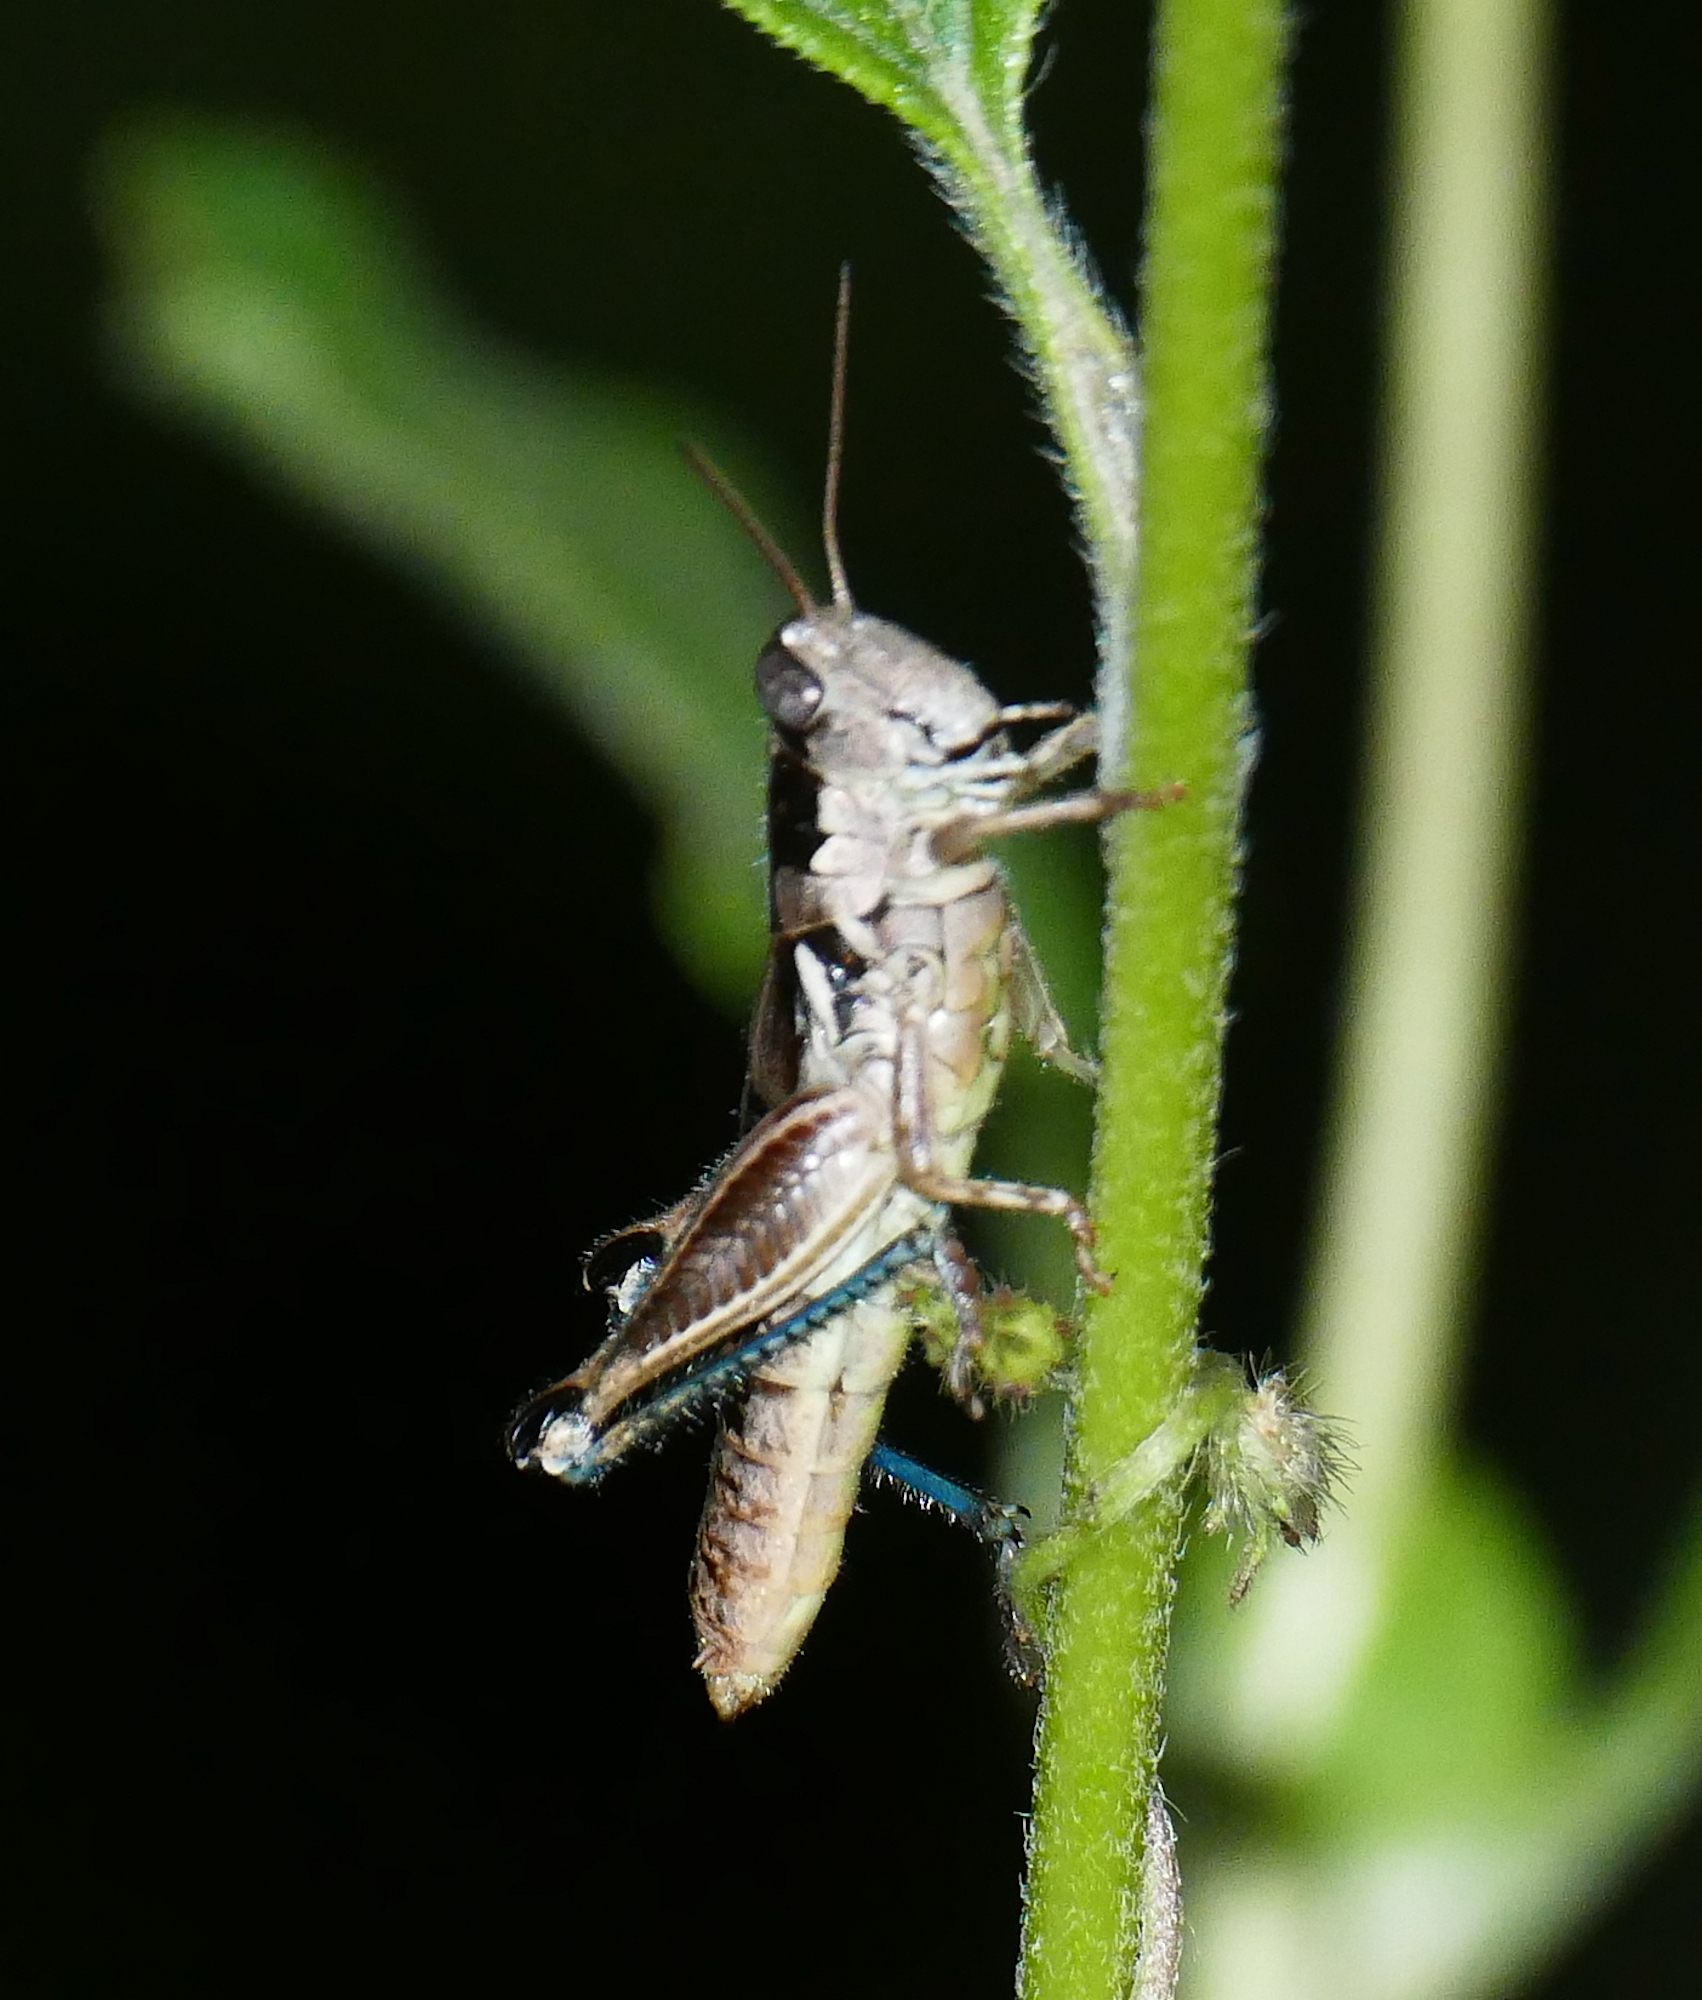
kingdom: Animalia
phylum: Arthropoda
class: Insecta
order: Orthoptera
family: Acrididae
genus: Melanoplus
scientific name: Melanoplus mogollona
